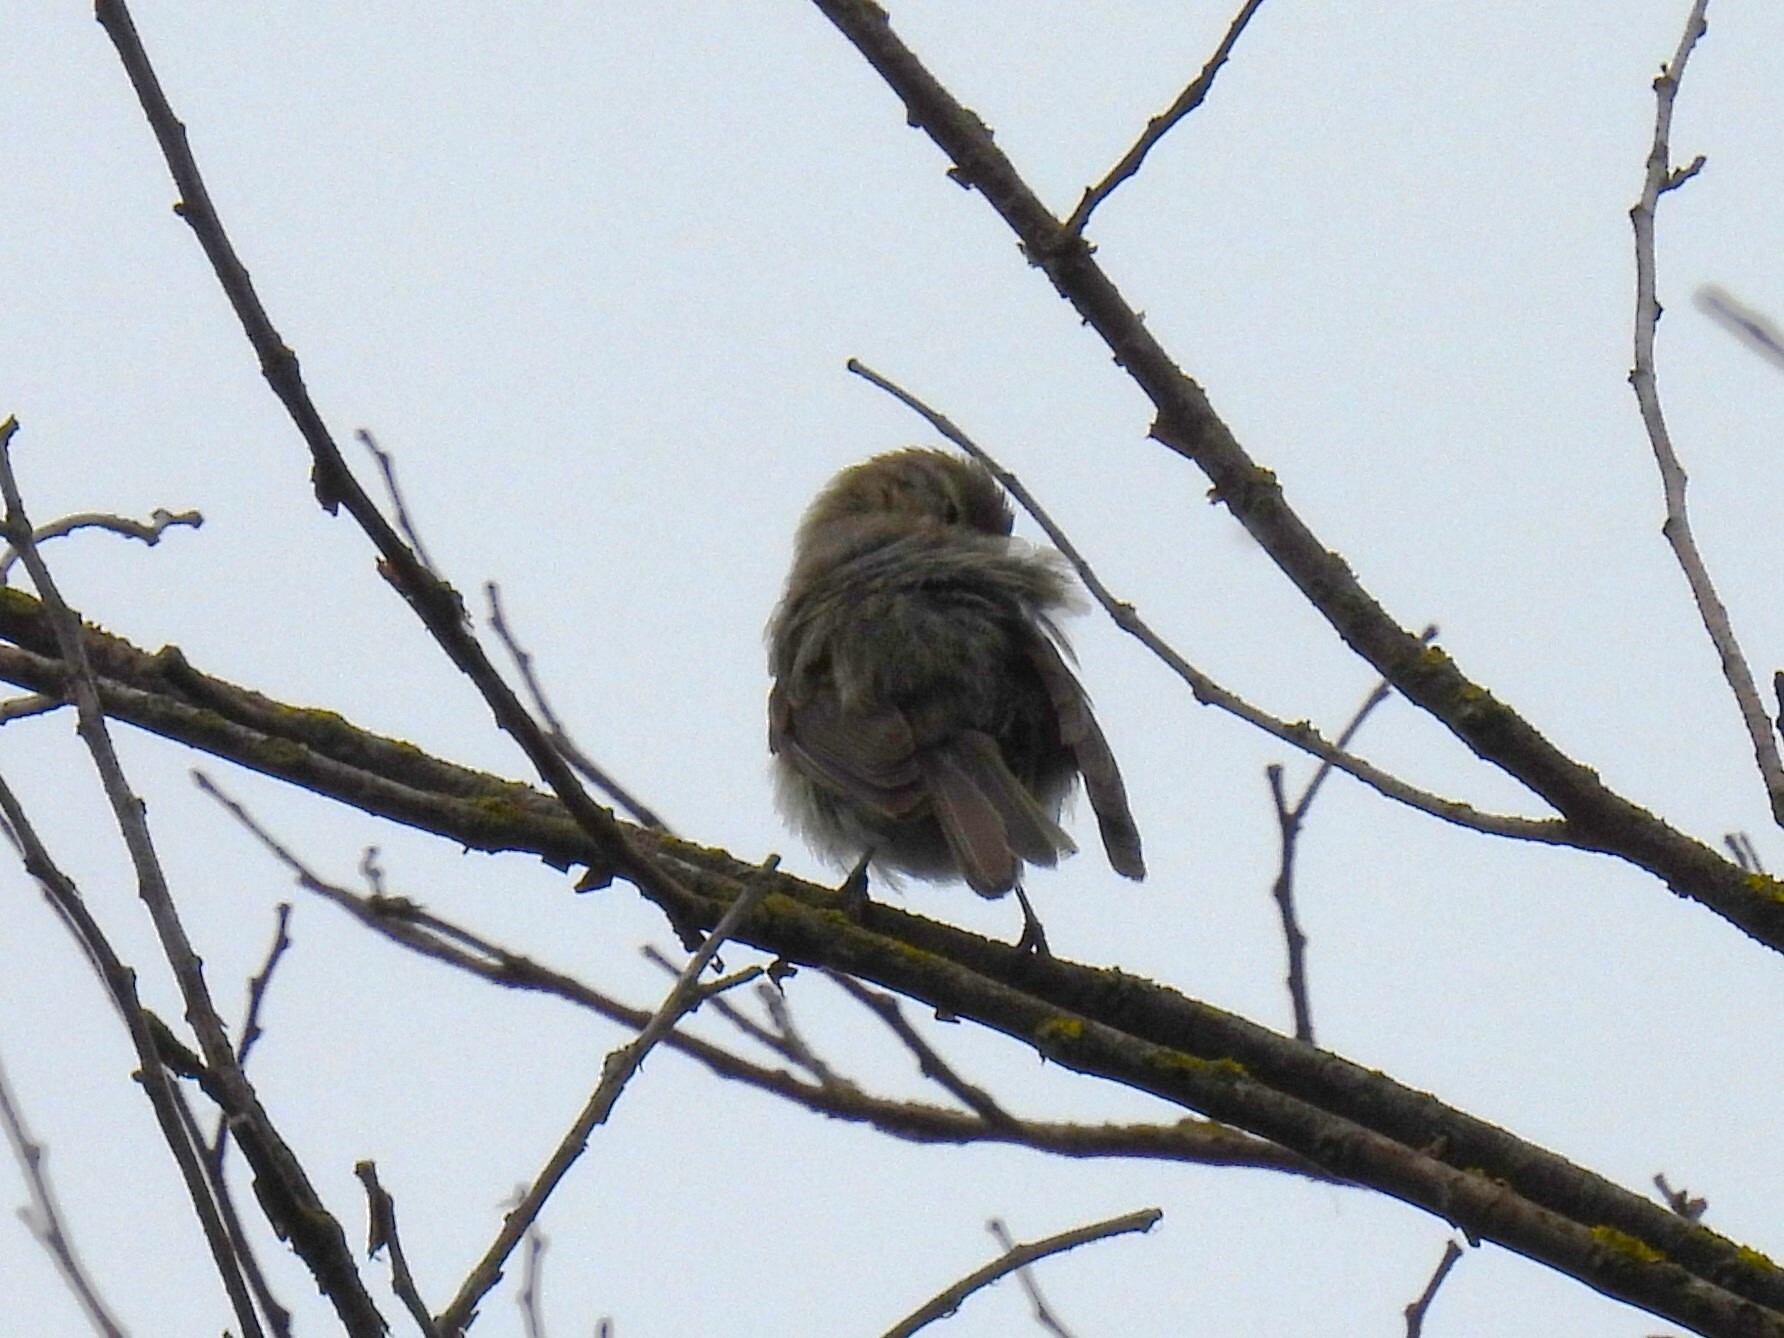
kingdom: Animalia
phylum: Chordata
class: Aves
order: Passeriformes
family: Phylloscopidae
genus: Phylloscopus
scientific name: Phylloscopus collybita
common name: Common chiffchaff
